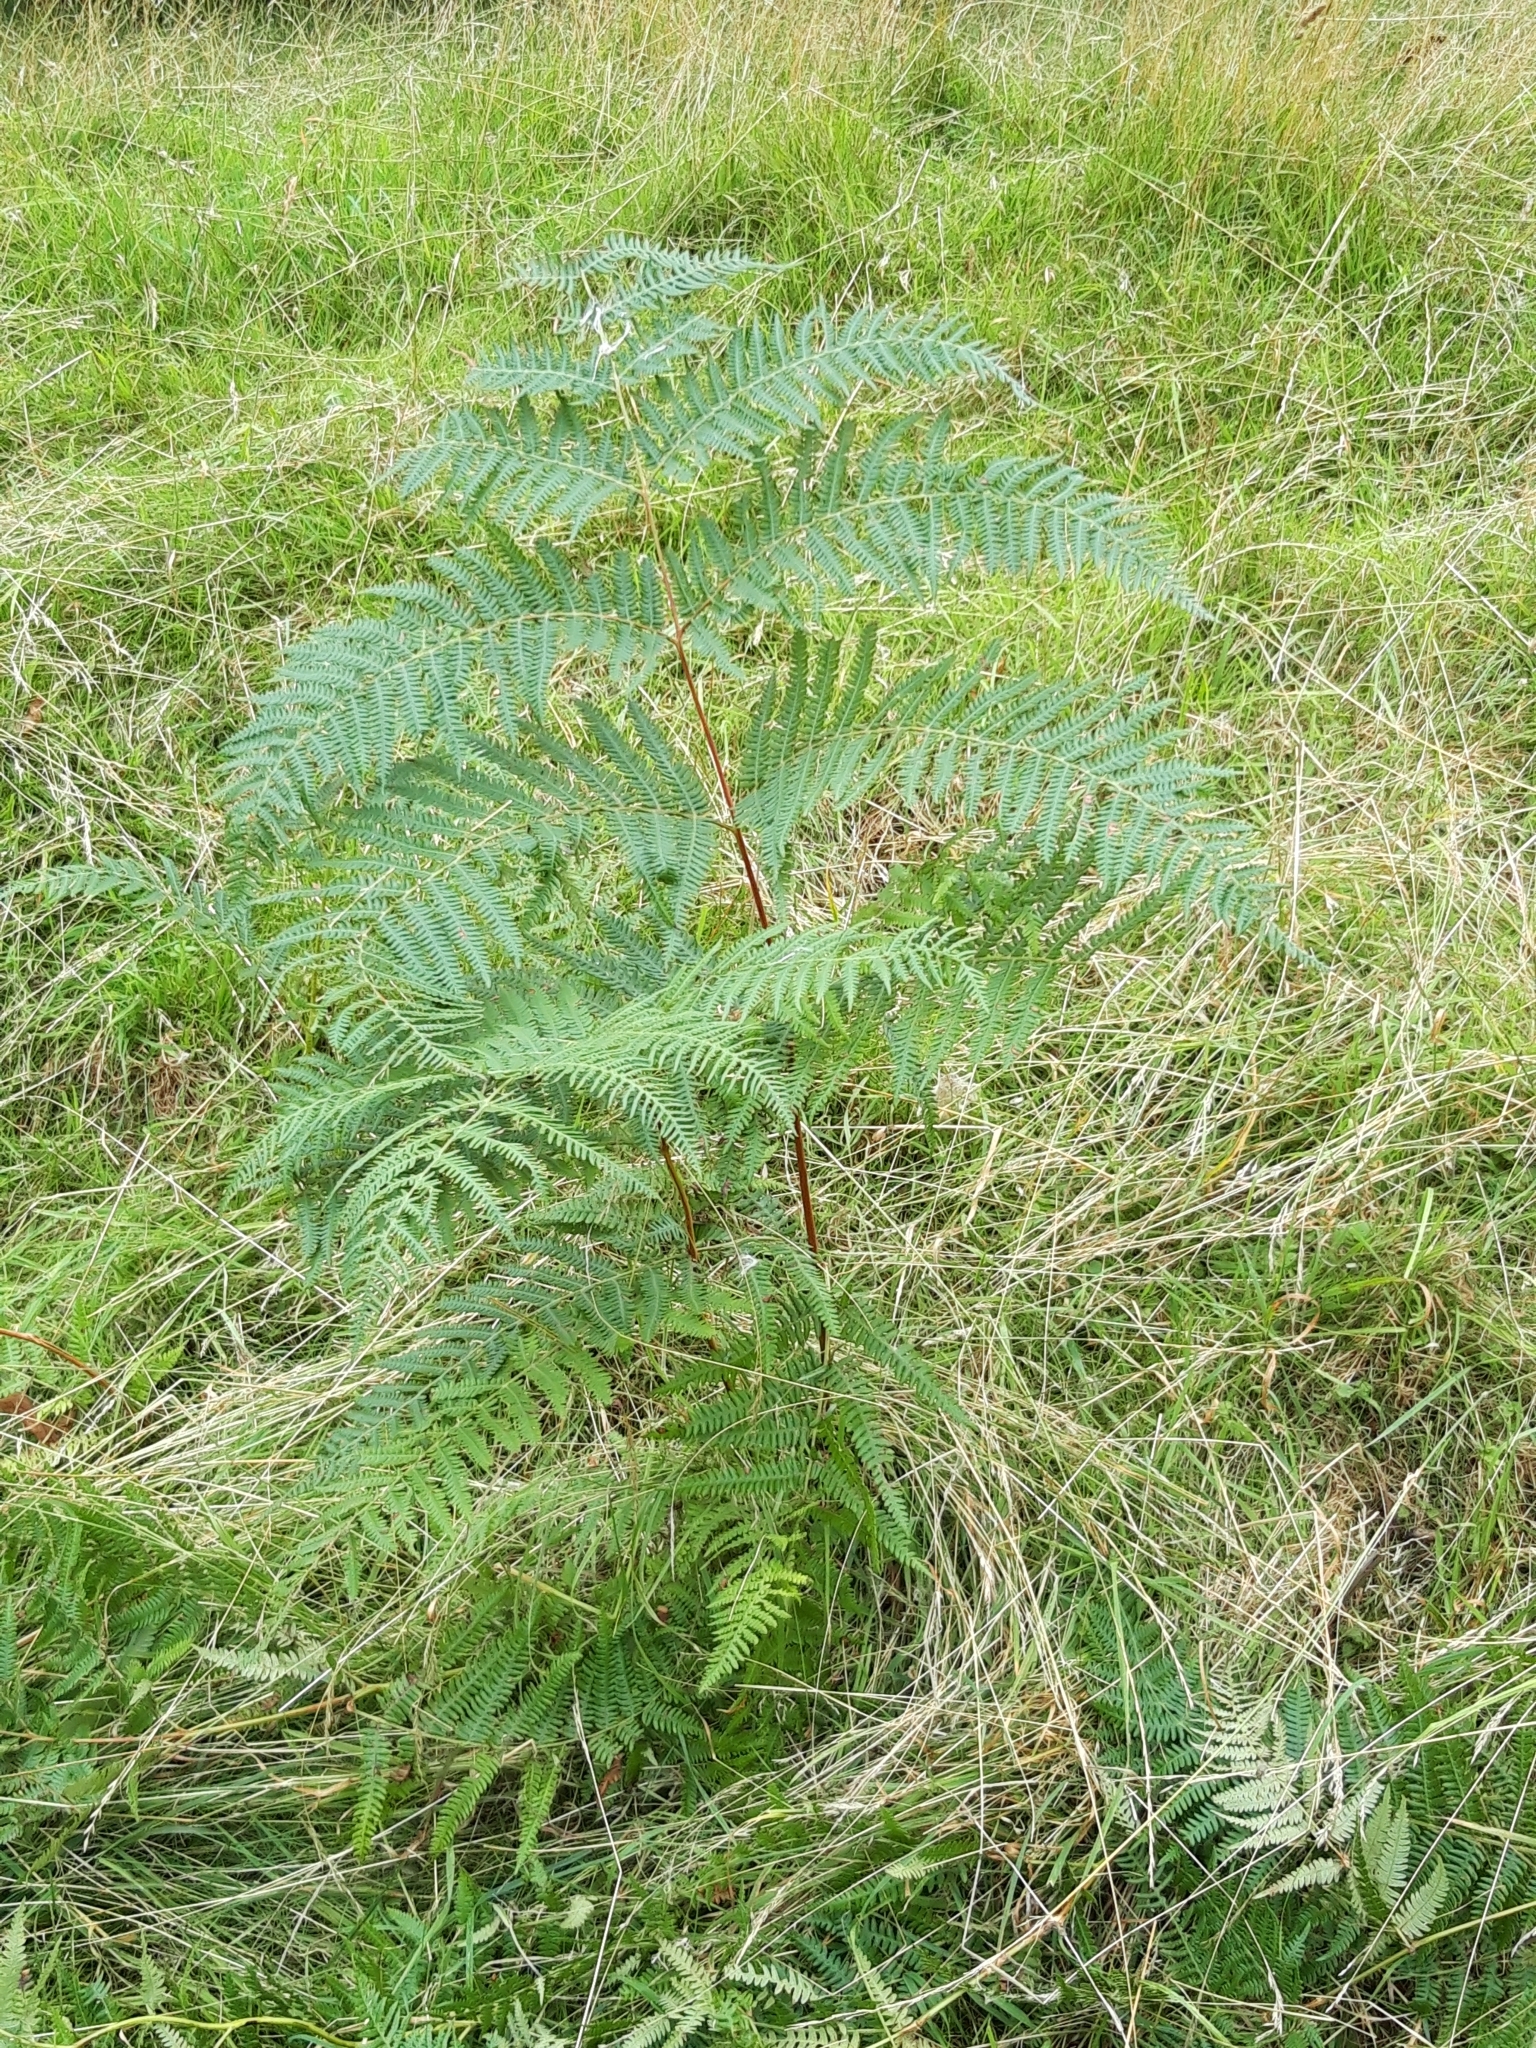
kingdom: Plantae
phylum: Tracheophyta
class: Polypodiopsida
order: Polypodiales
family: Dennstaedtiaceae
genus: Pteridium
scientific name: Pteridium aquilinum
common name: Bracken
